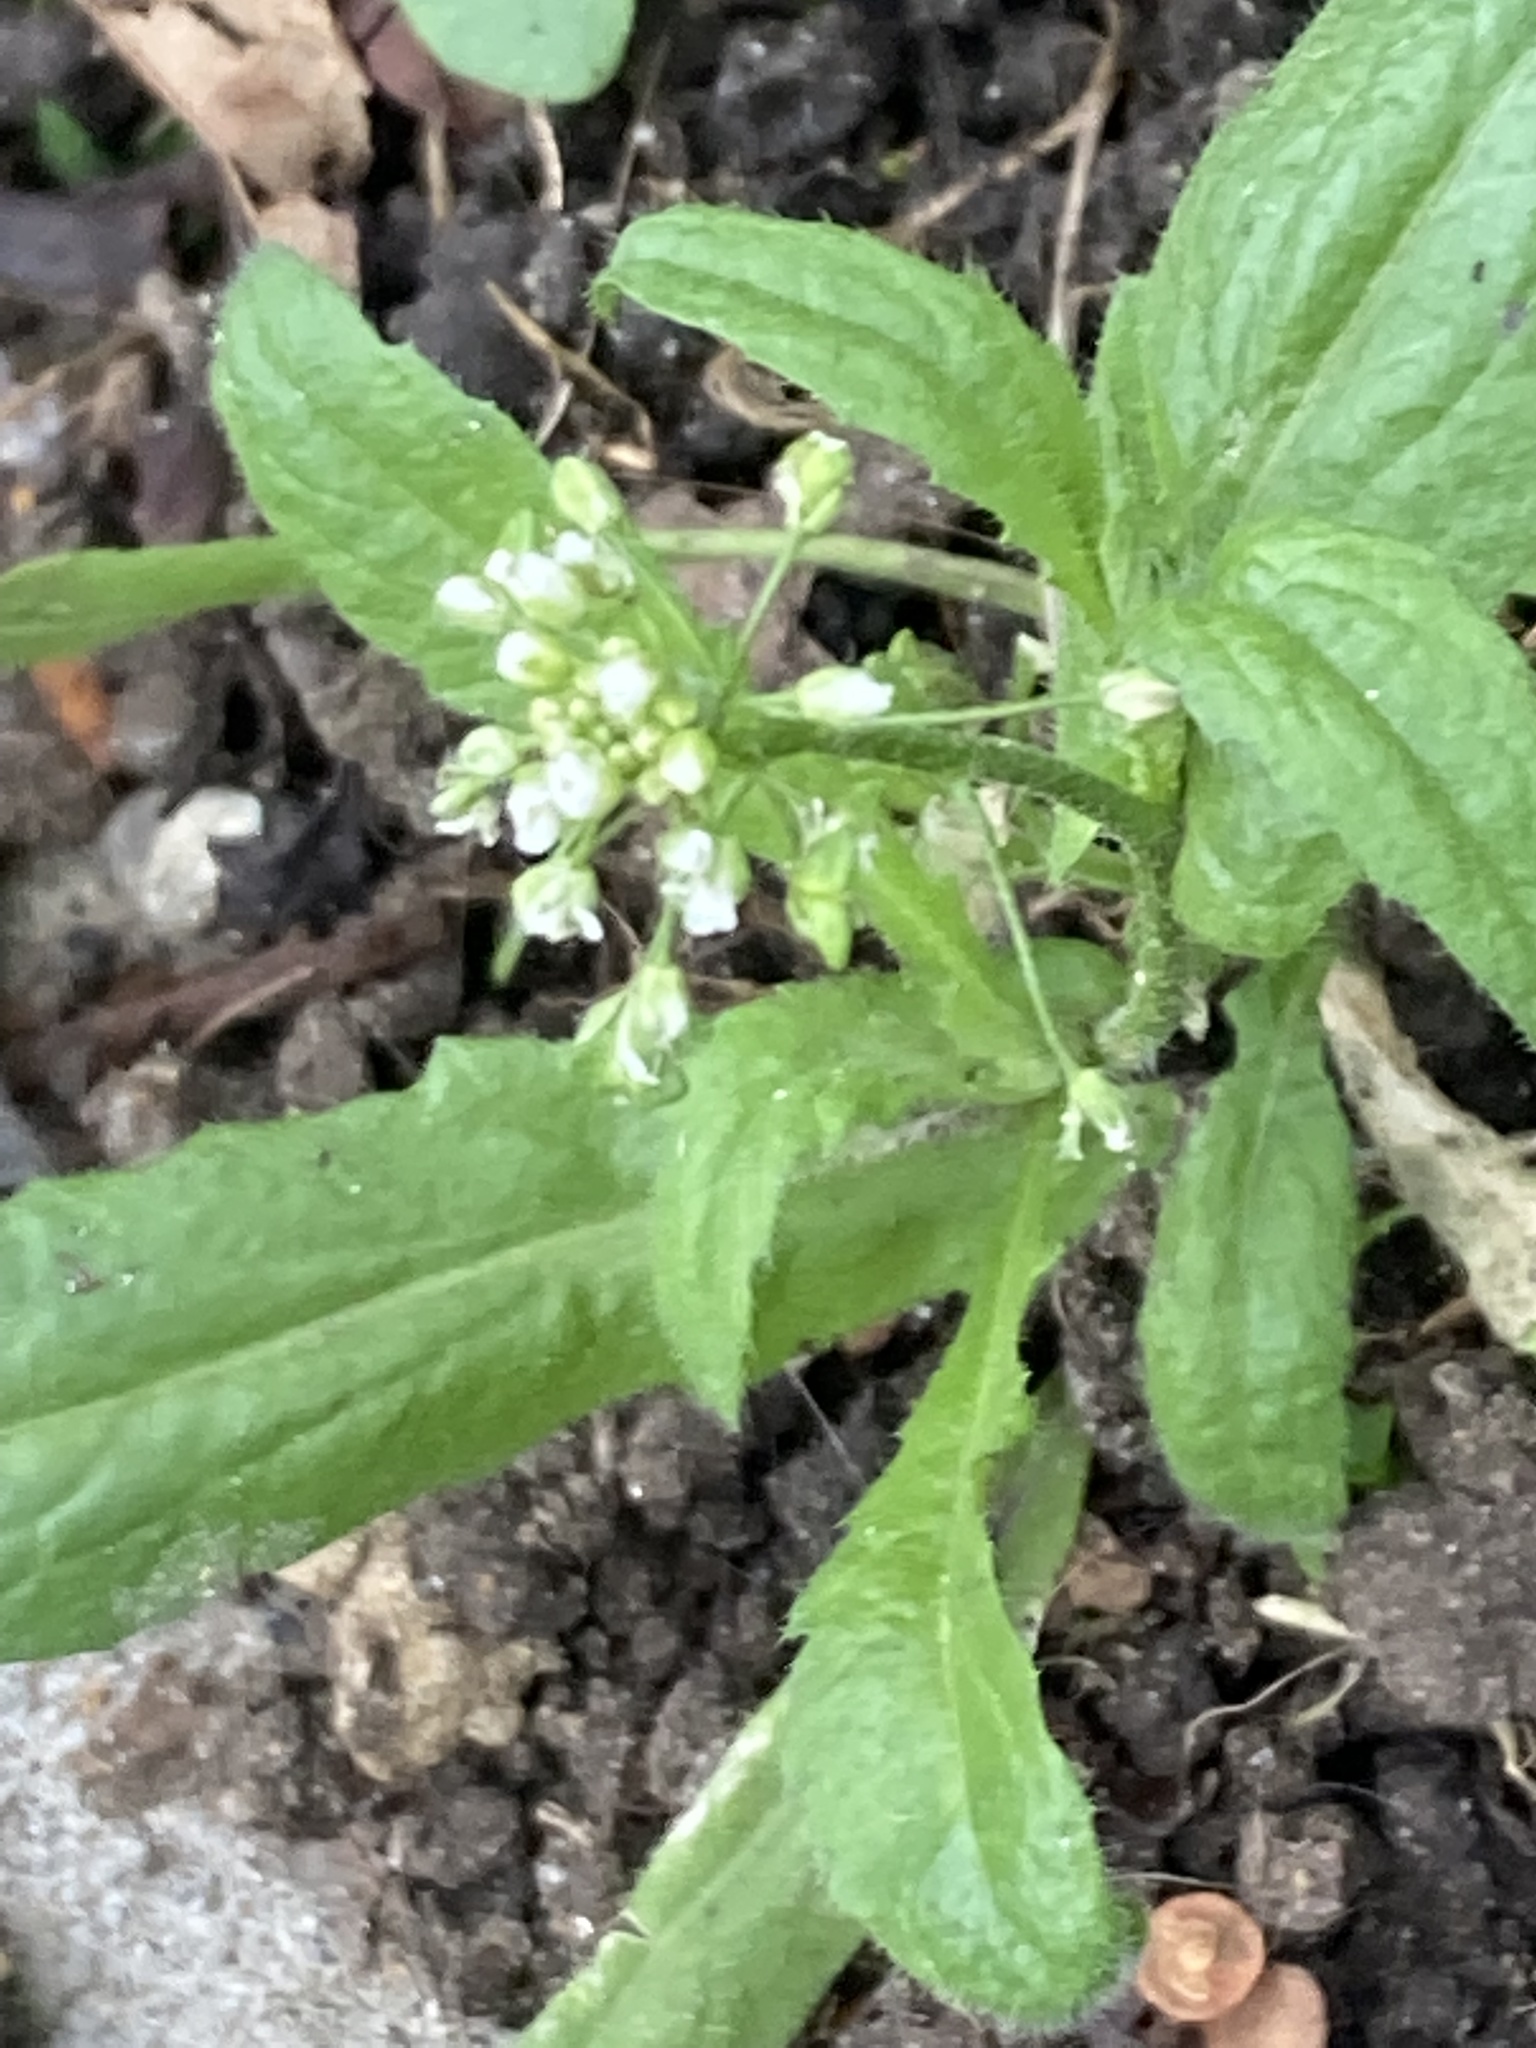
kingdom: Plantae
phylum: Tracheophyta
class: Magnoliopsida
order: Brassicales
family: Brassicaceae
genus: Capsella
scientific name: Capsella bursa-pastoris
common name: Shepherd's purse
